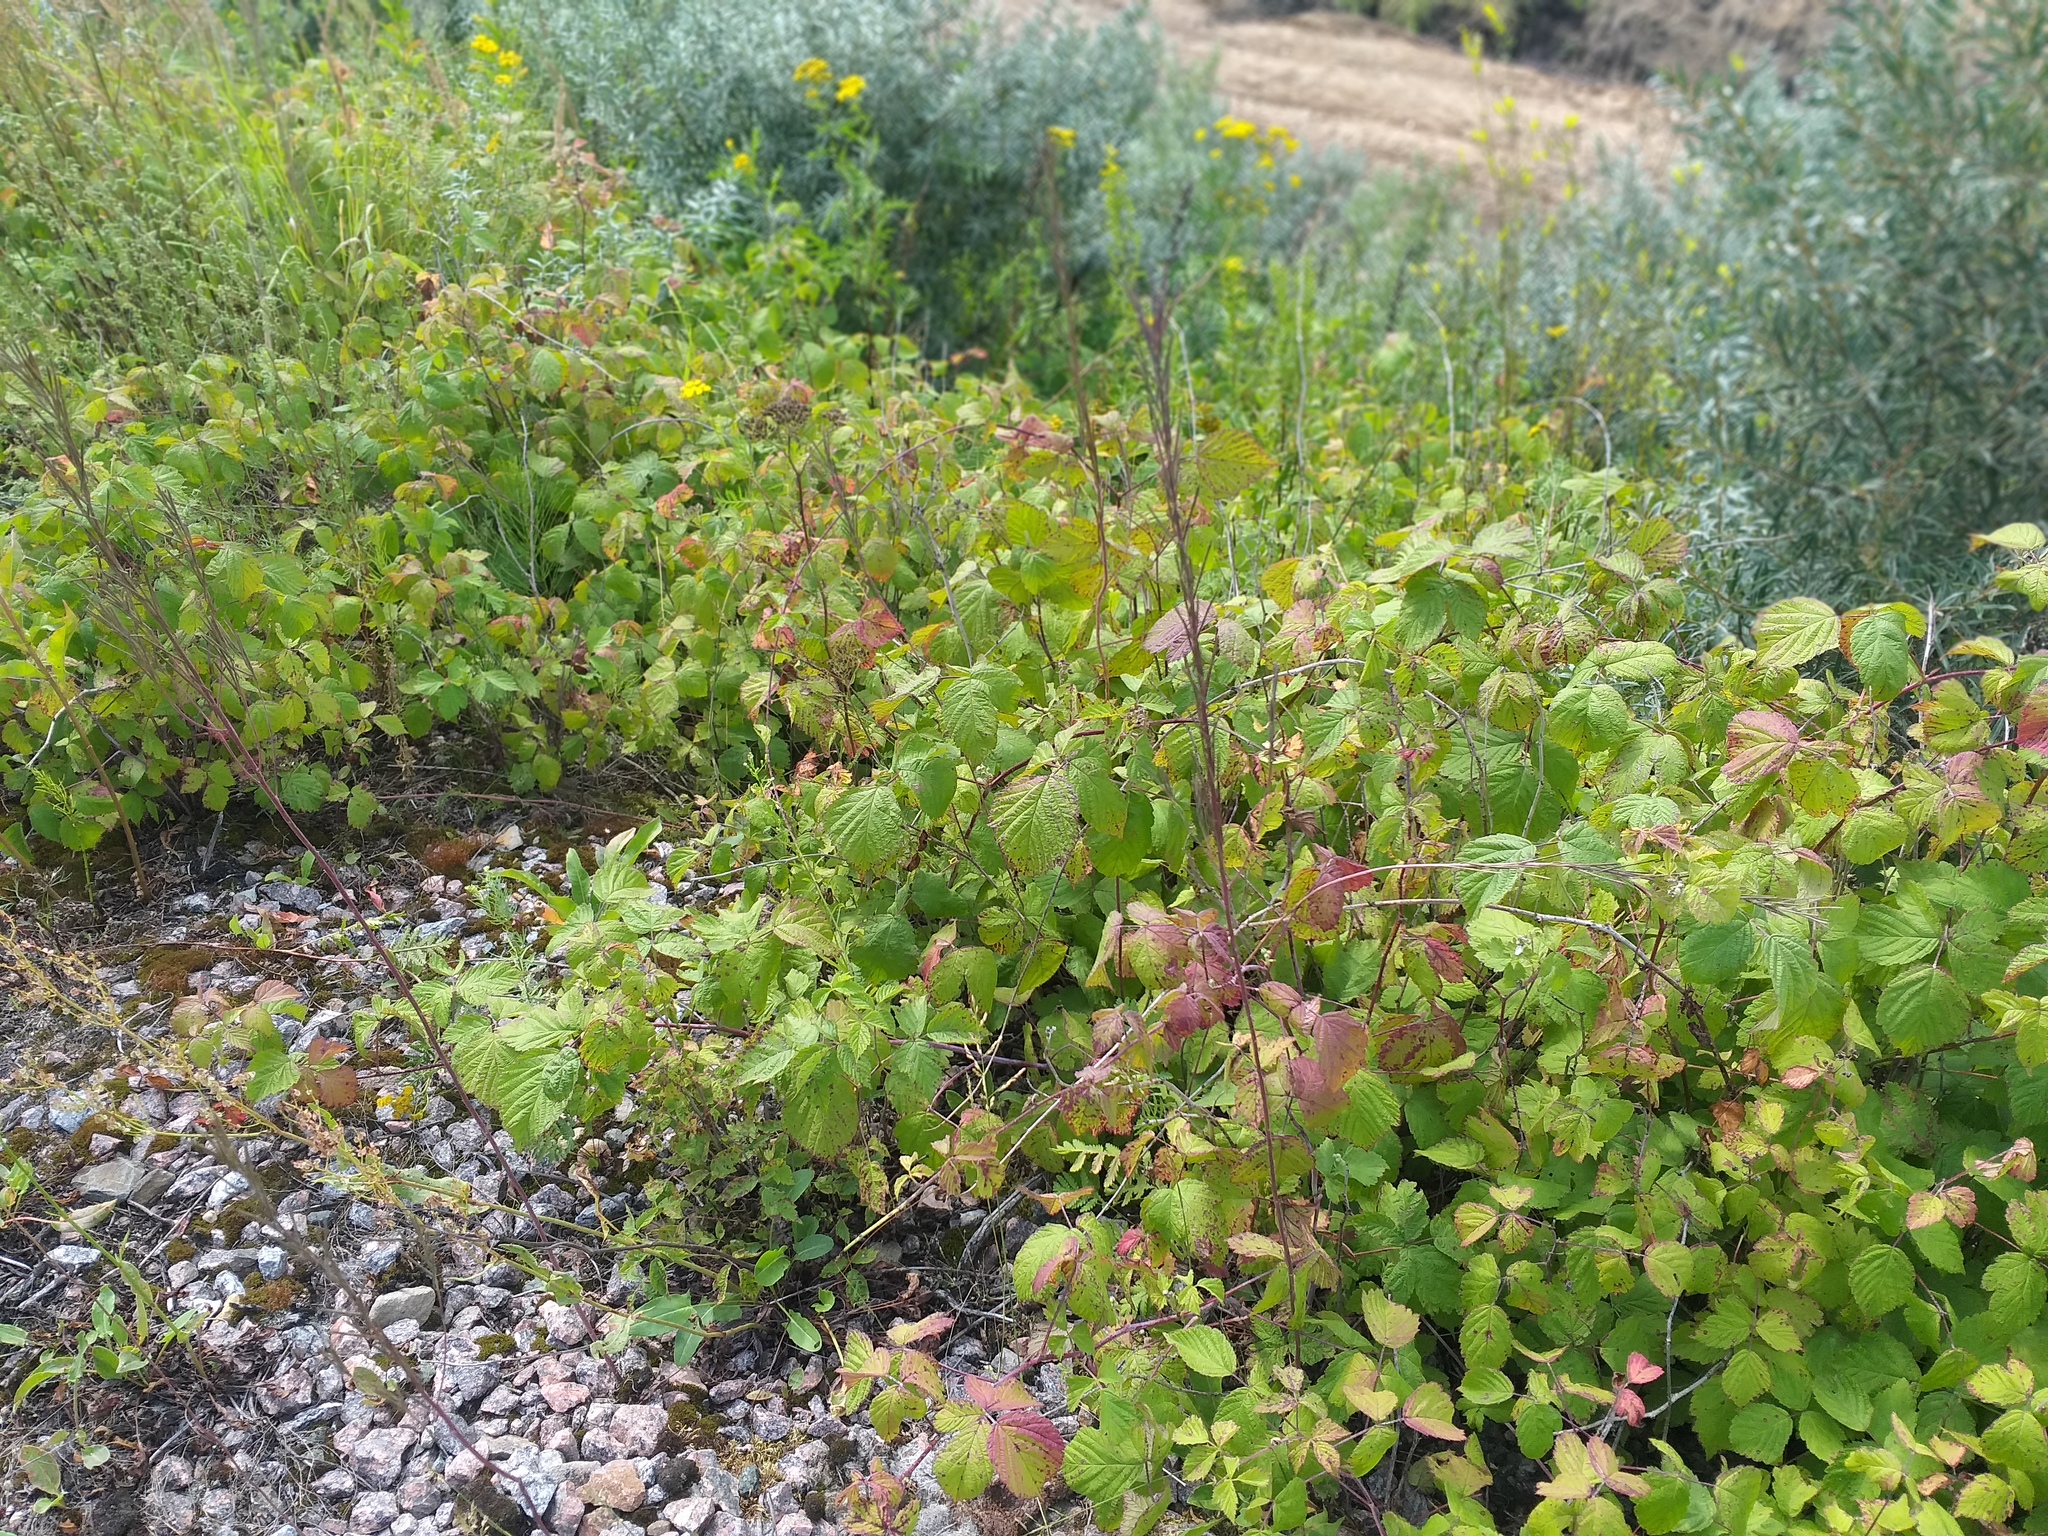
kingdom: Plantae
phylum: Tracheophyta
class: Magnoliopsida
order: Rosales
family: Rosaceae
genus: Rubus
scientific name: Rubus idaeoides
